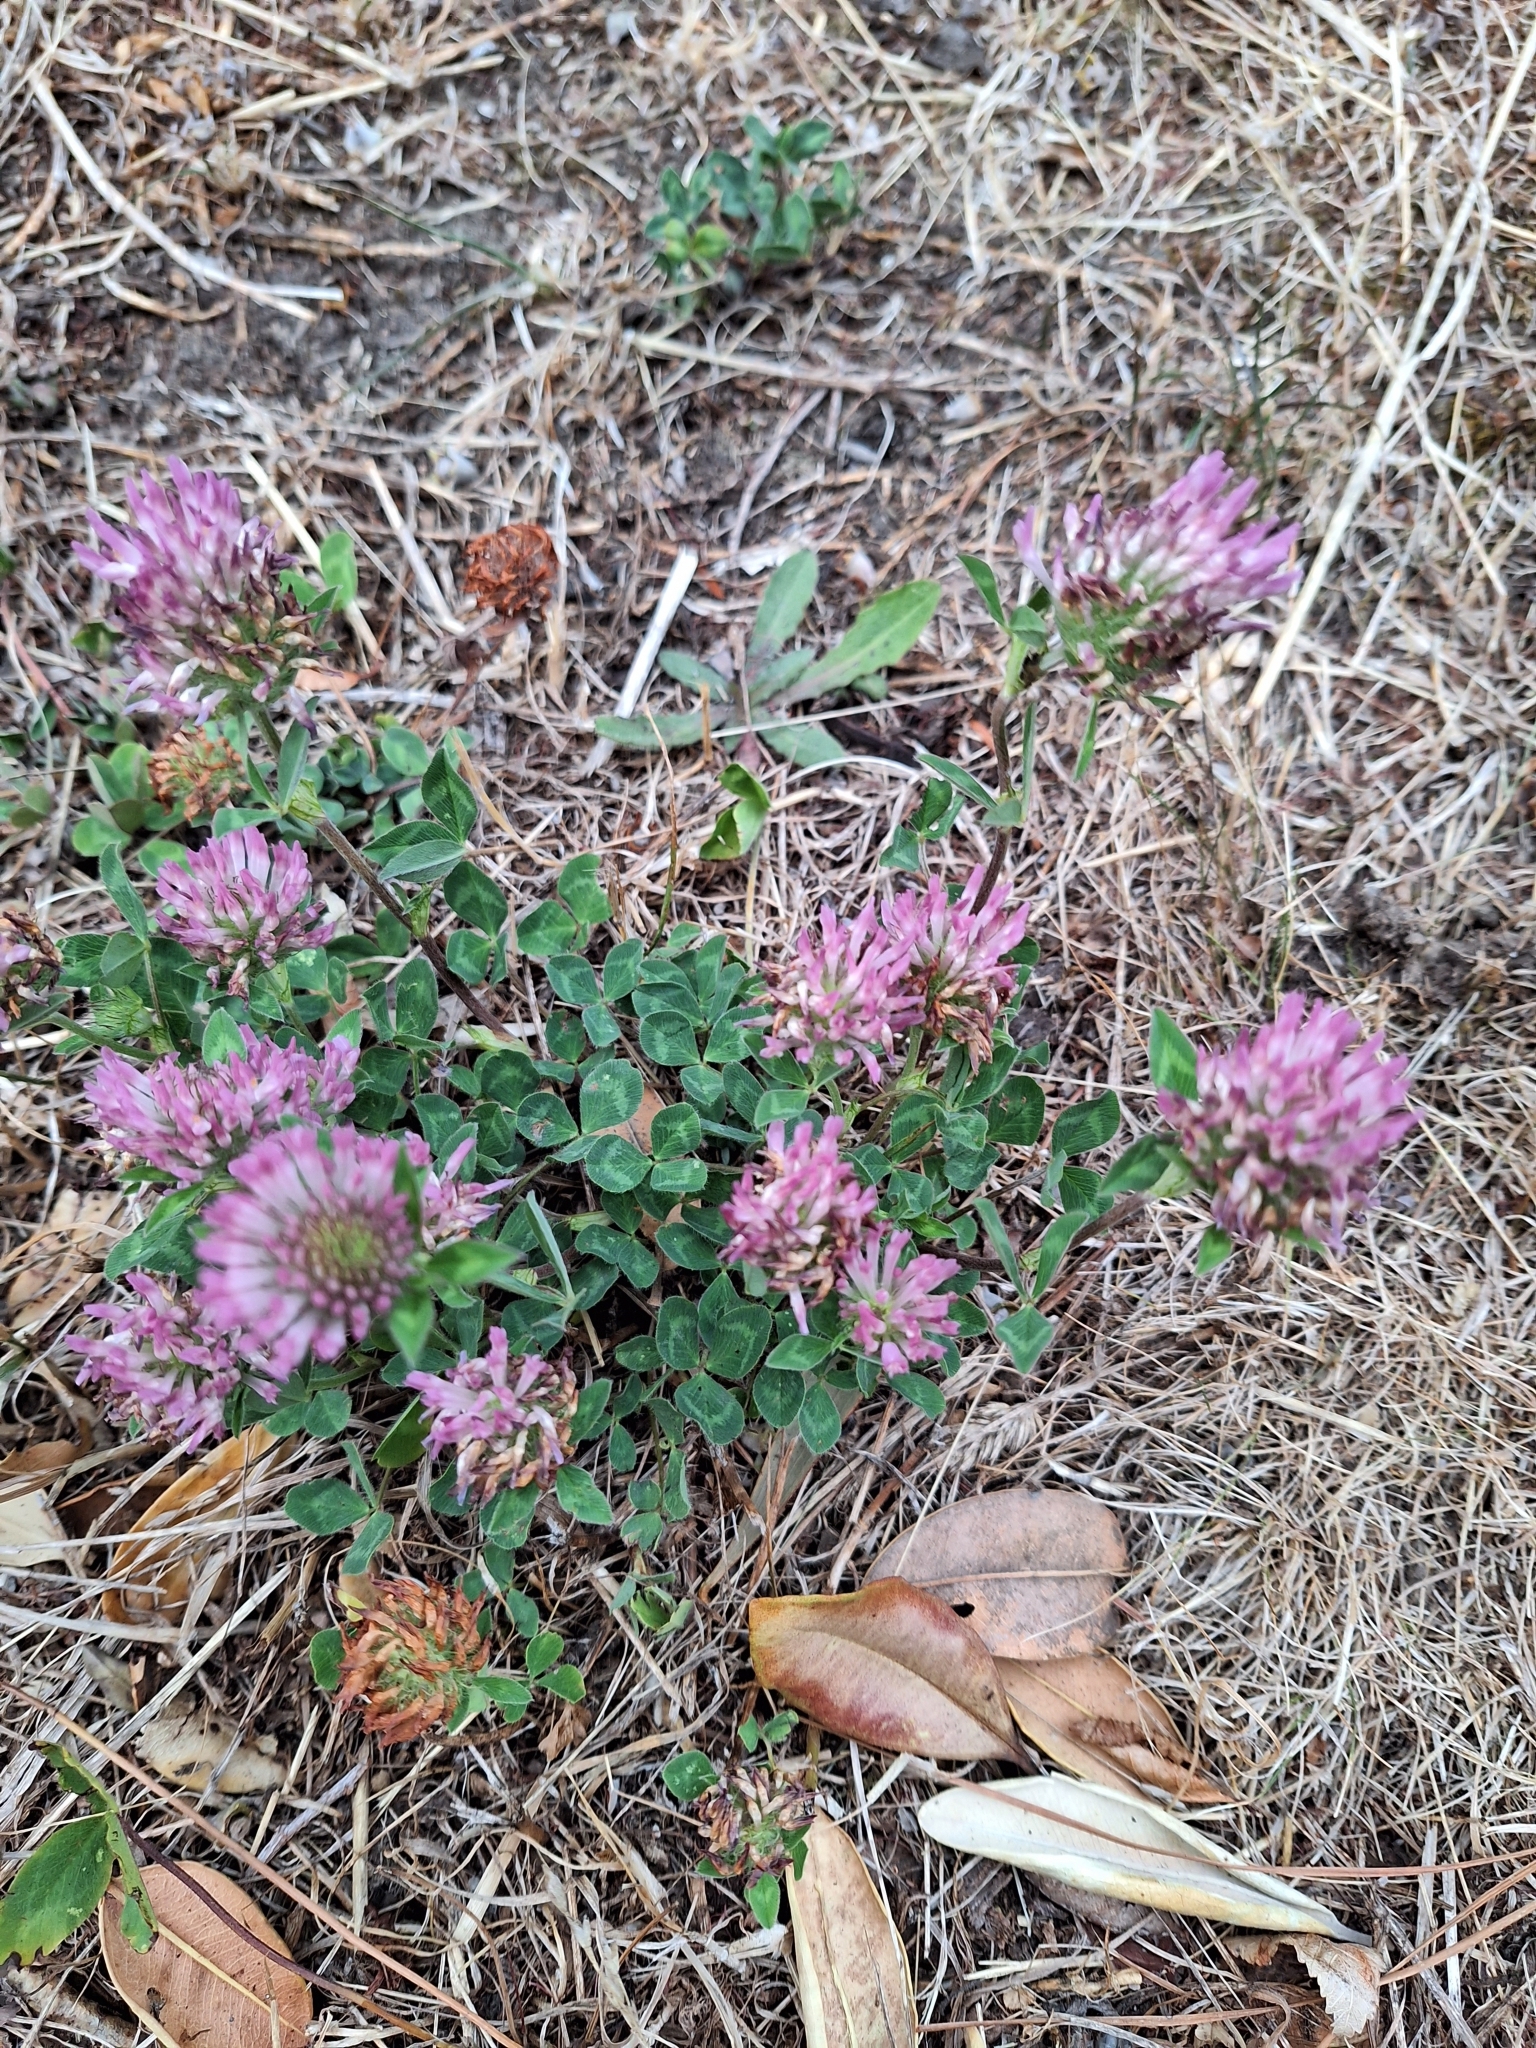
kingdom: Plantae
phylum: Tracheophyta
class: Magnoliopsida
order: Fabales
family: Fabaceae
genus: Trifolium
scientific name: Trifolium pratense
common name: Red clover
